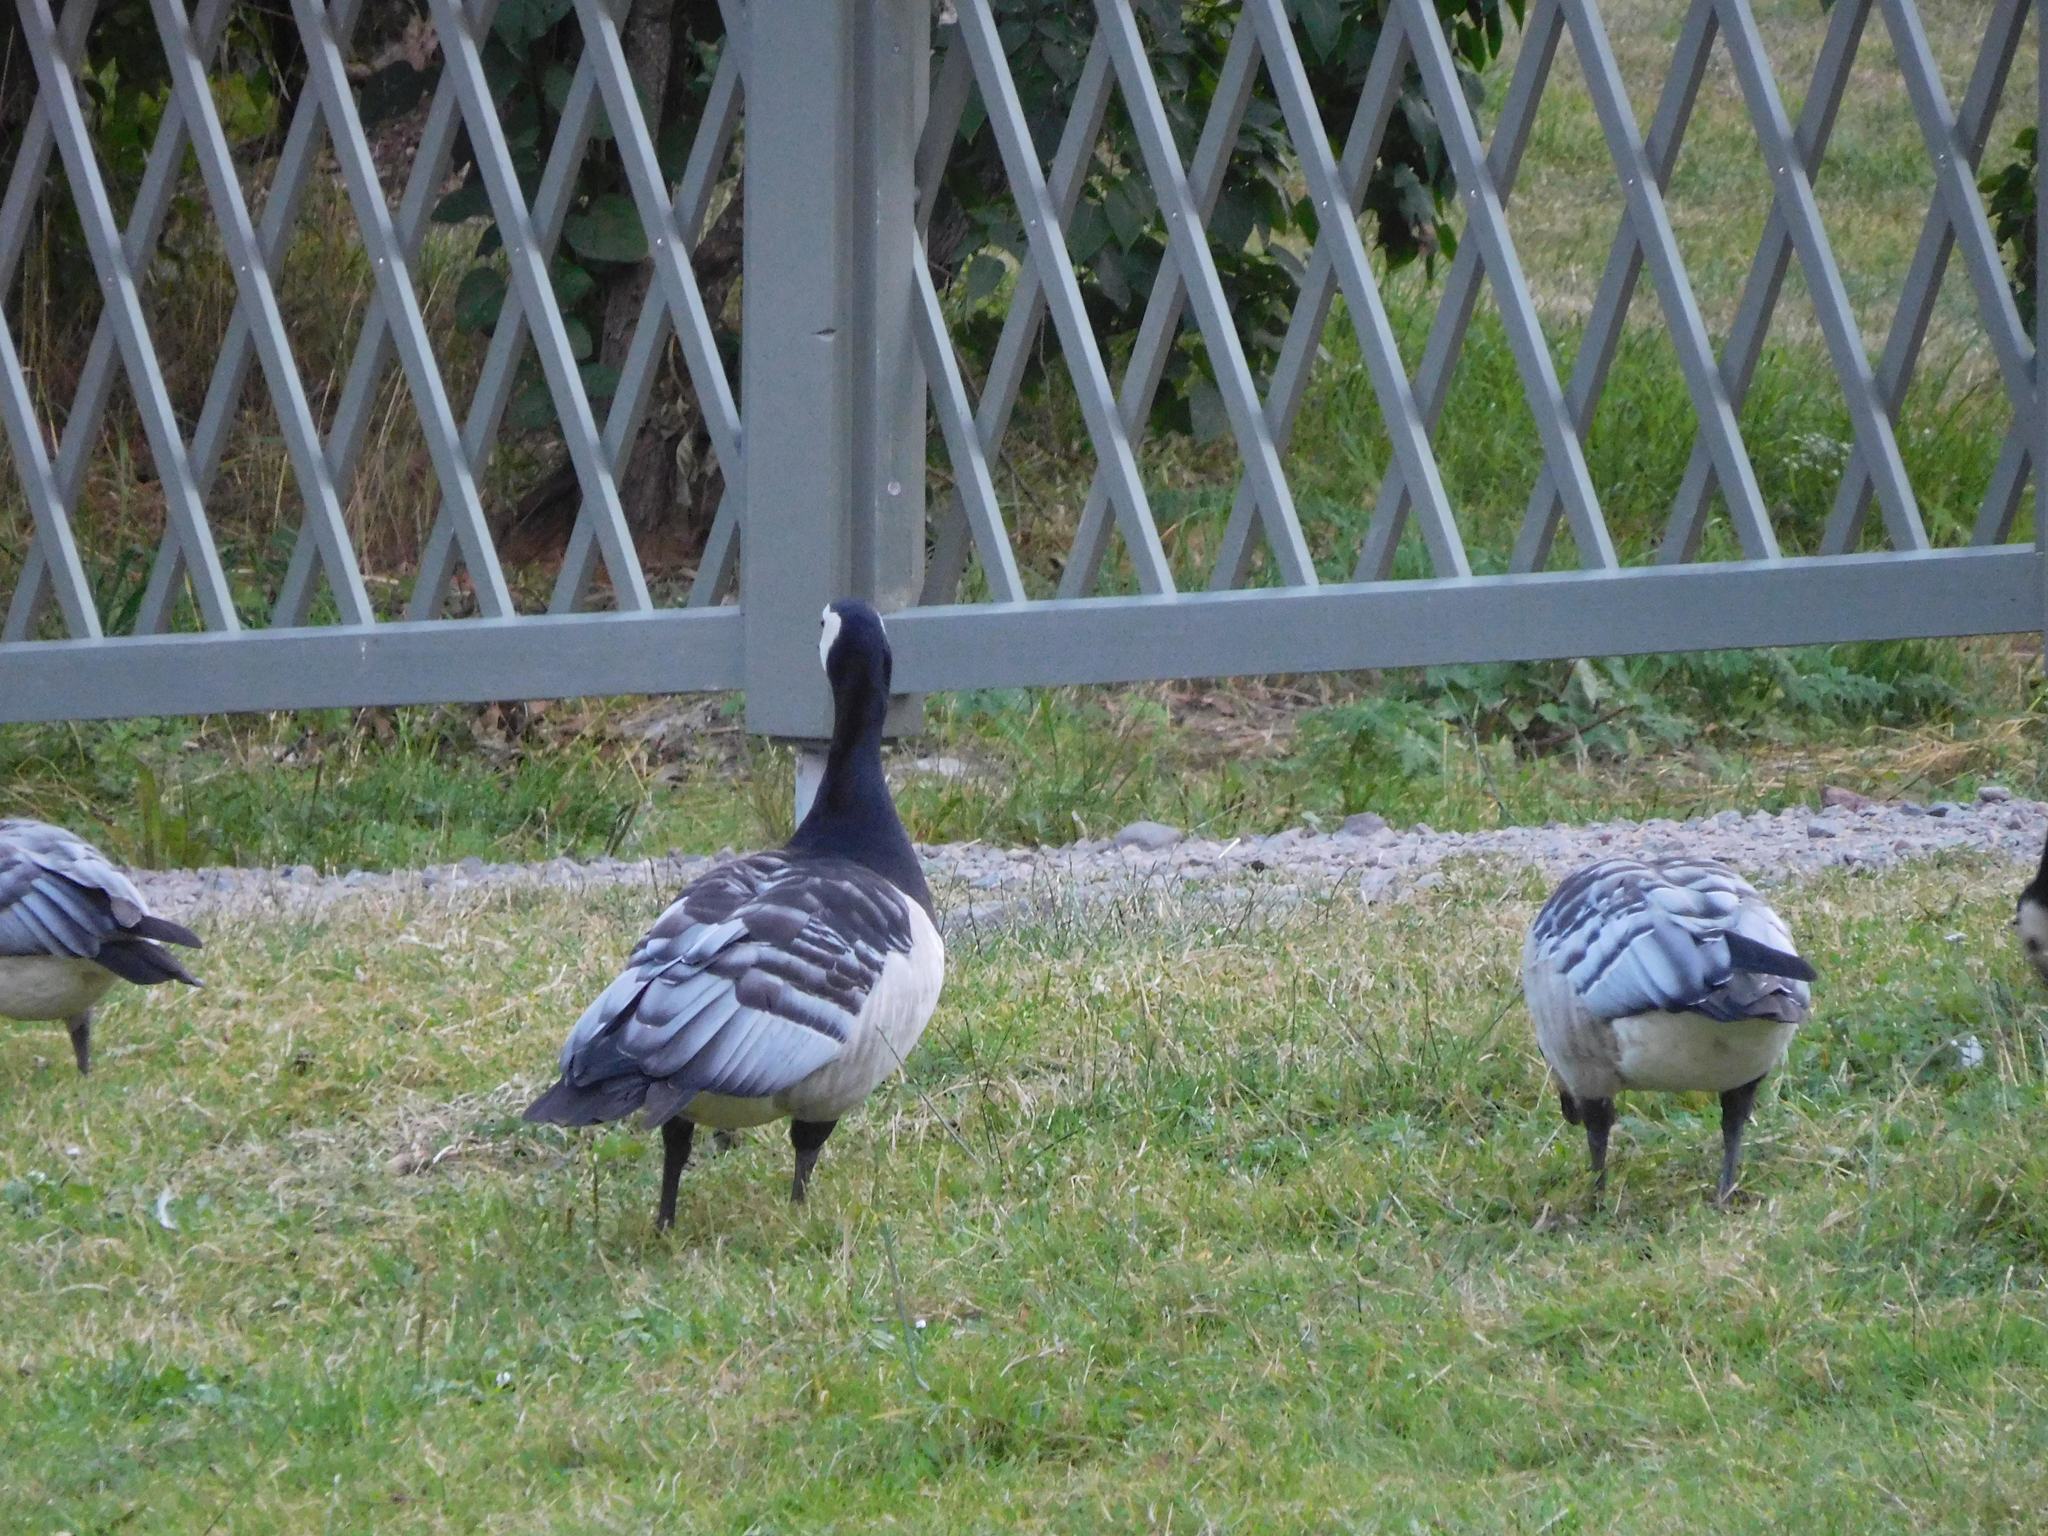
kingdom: Animalia
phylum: Chordata
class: Aves
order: Anseriformes
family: Anatidae
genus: Branta
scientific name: Branta leucopsis
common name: Barnacle goose
